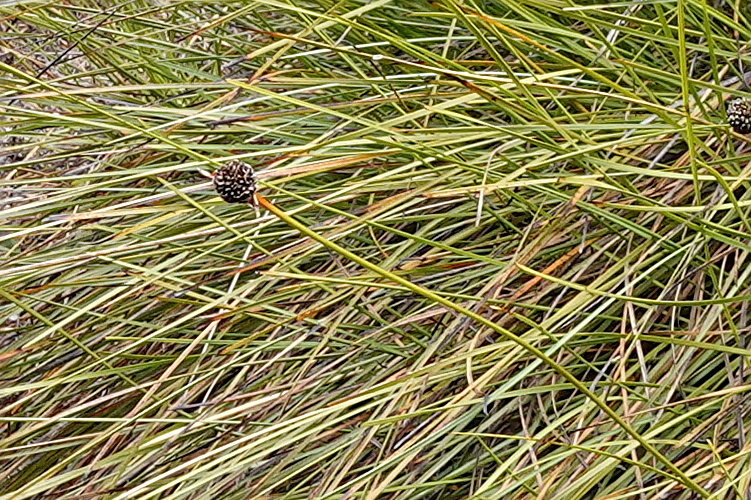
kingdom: Plantae
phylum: Tracheophyta
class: Liliopsida
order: Poales
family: Cyperaceae
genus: Gymnoschoenus
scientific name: Gymnoschoenus sphaerocephalus
